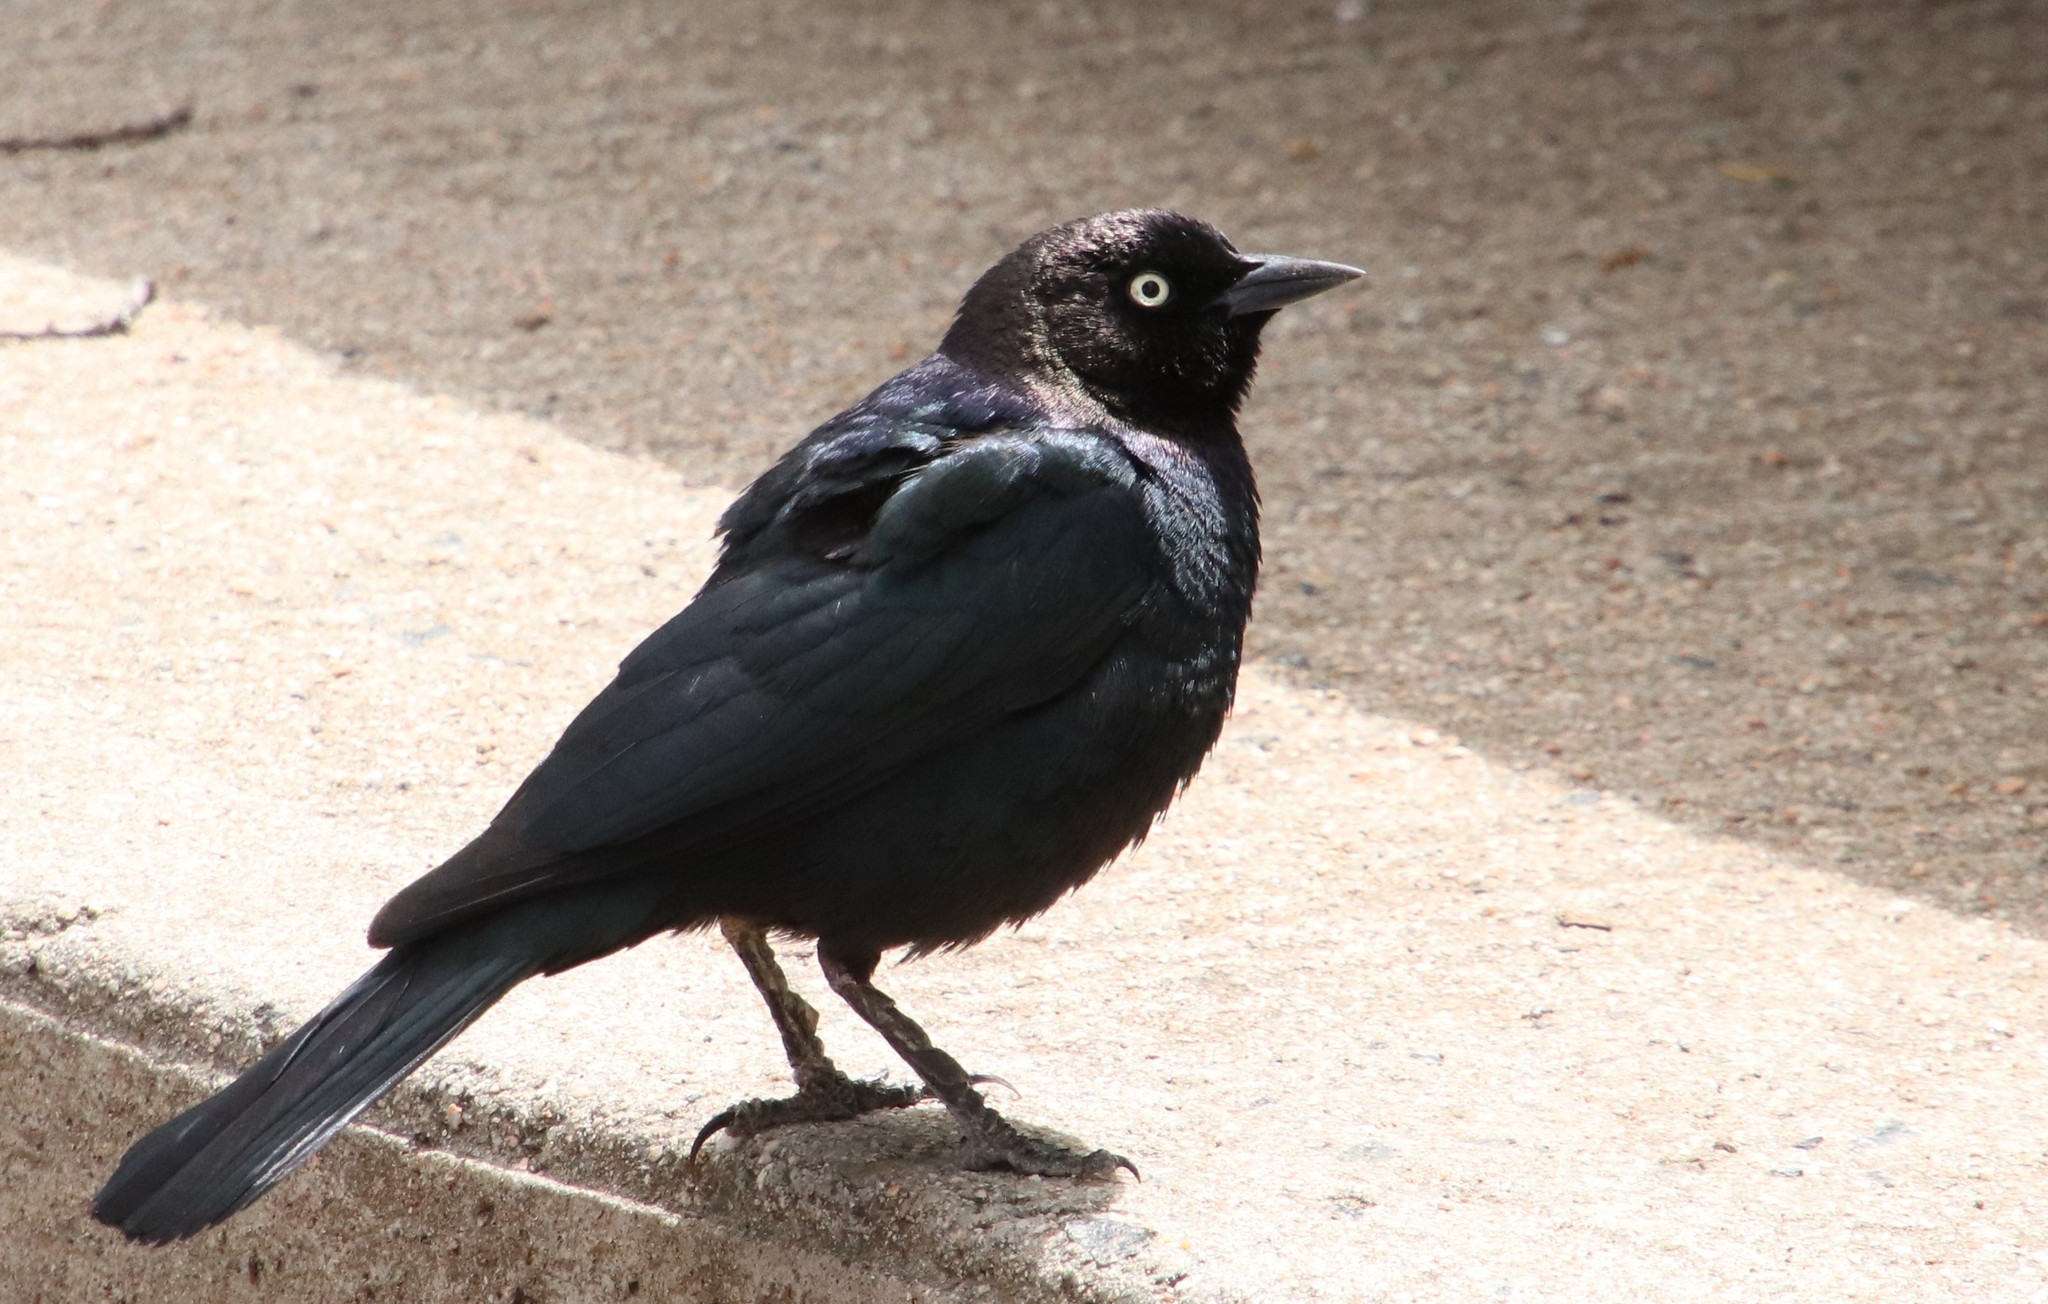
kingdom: Animalia
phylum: Chordata
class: Aves
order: Passeriformes
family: Icteridae
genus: Euphagus
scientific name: Euphagus cyanocephalus
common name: Brewer's blackbird
